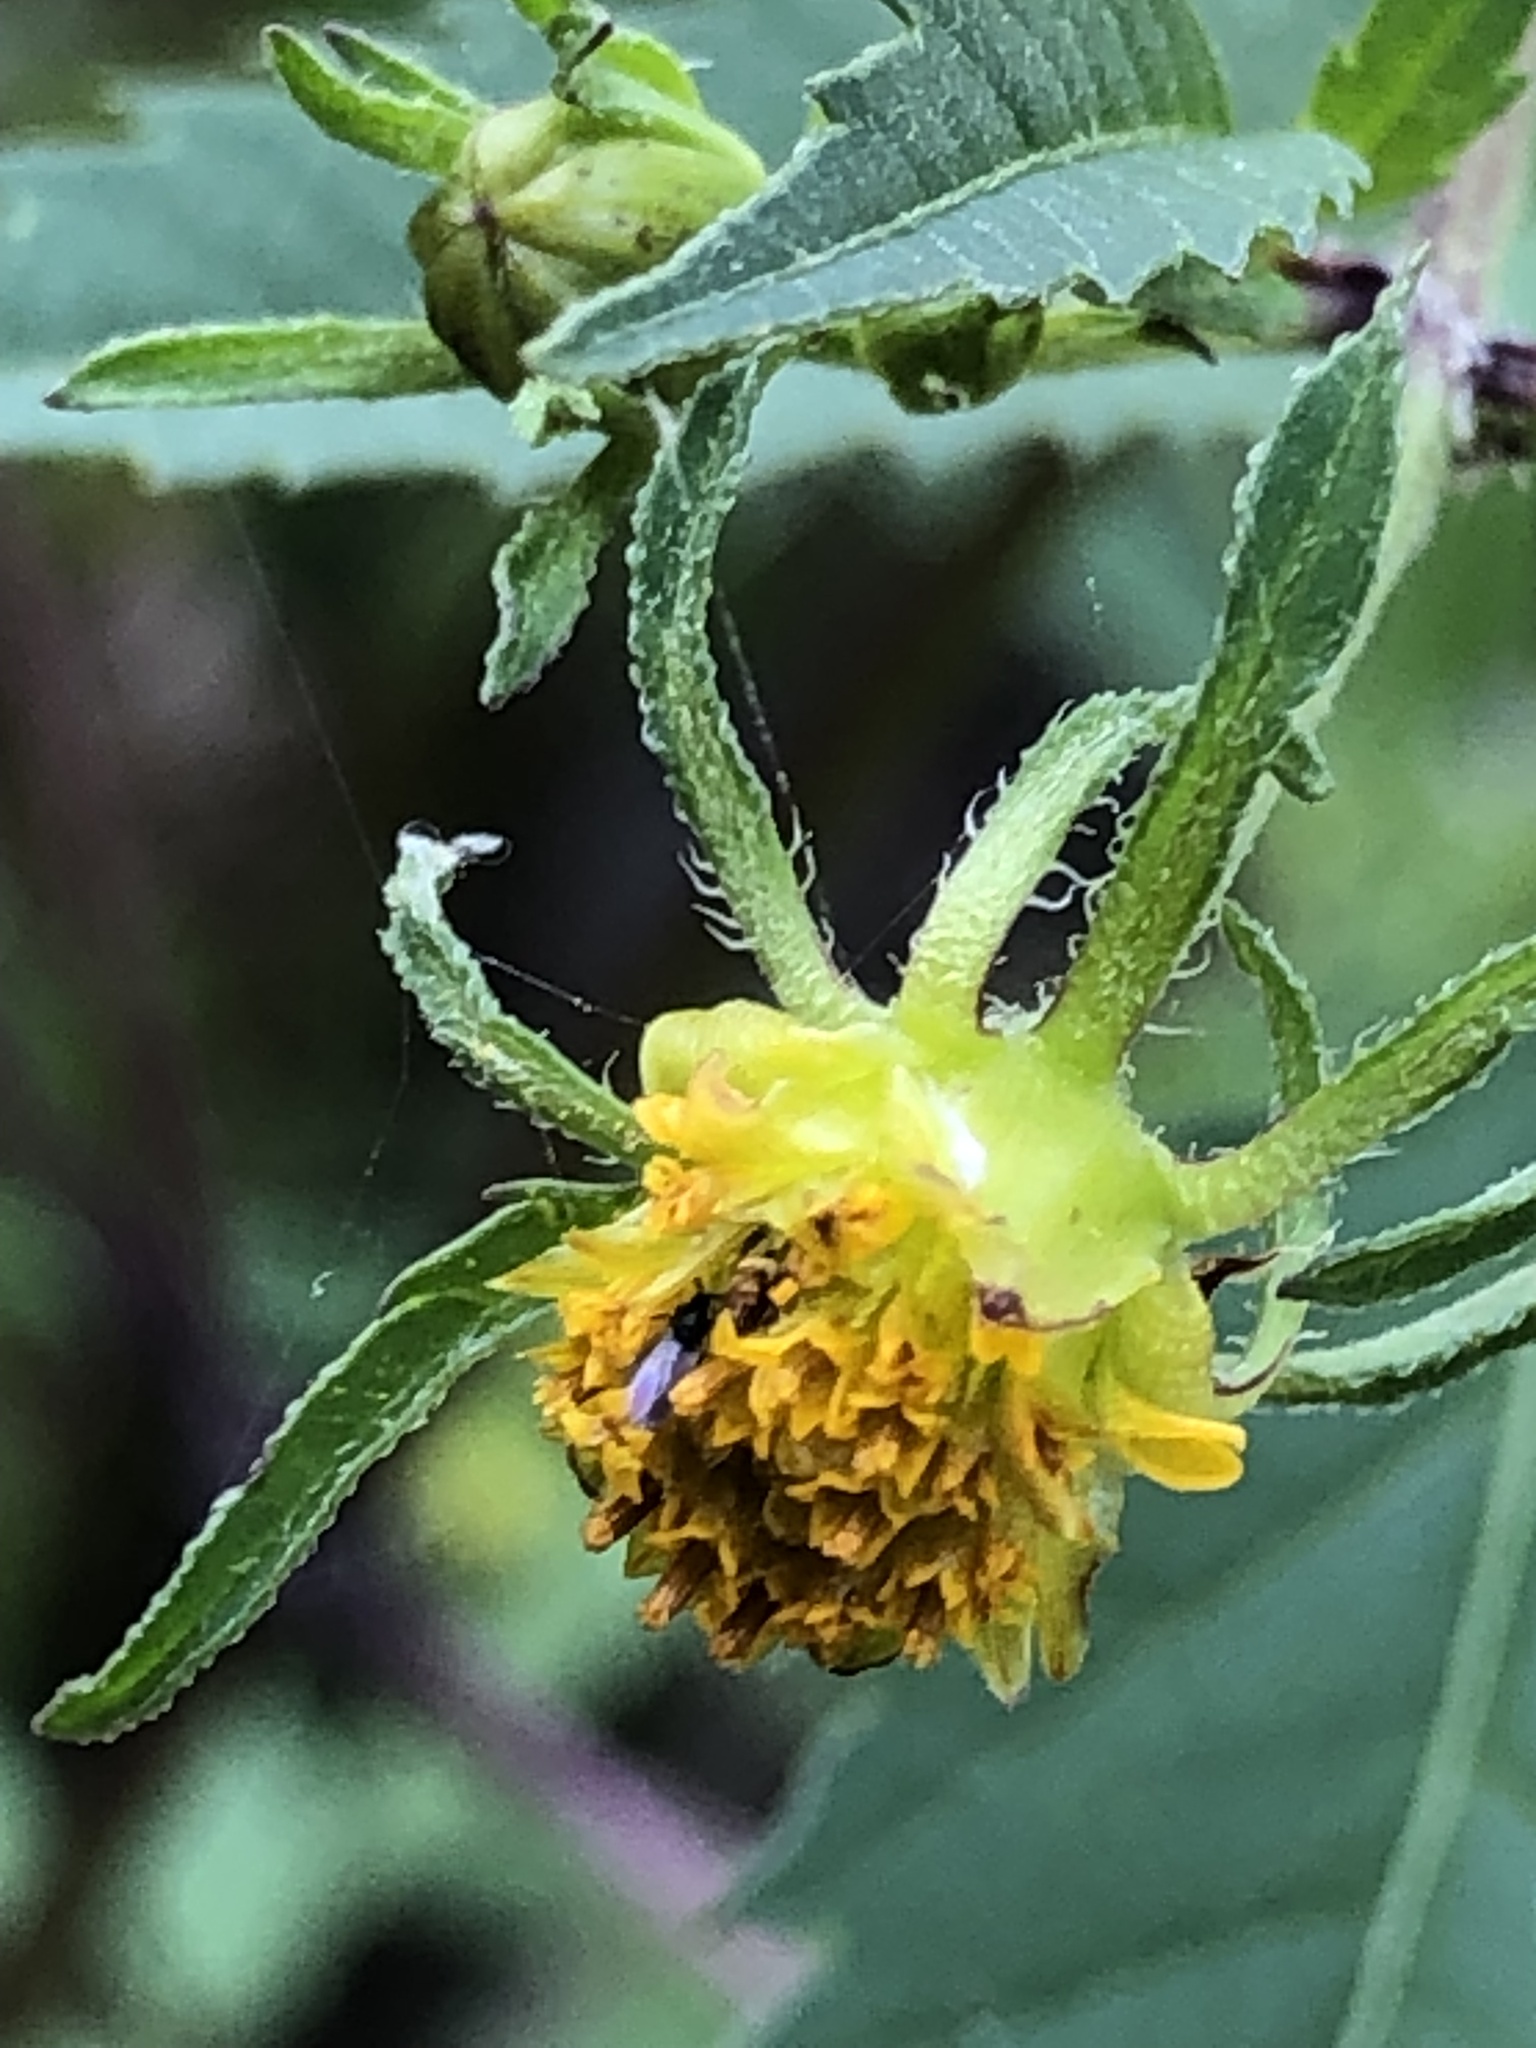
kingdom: Plantae
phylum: Tracheophyta
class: Magnoliopsida
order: Asterales
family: Asteraceae
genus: Bidens
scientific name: Bidens frondosa
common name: Beggarticks
